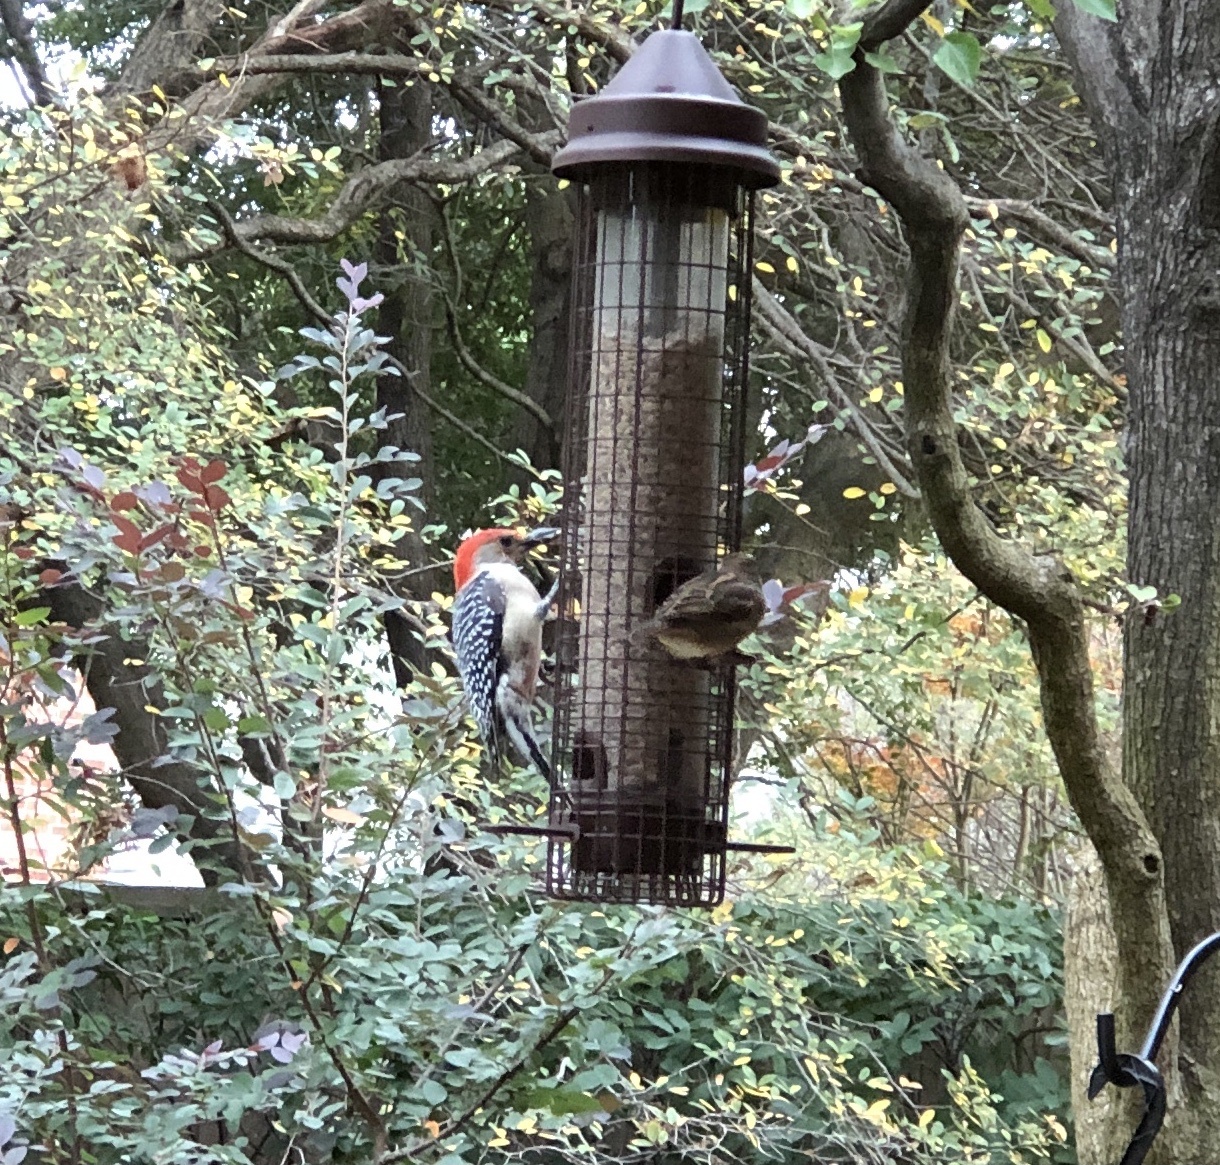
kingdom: Animalia
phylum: Chordata
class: Aves
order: Piciformes
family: Picidae
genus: Melanerpes
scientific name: Melanerpes carolinus
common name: Red-bellied woodpecker
